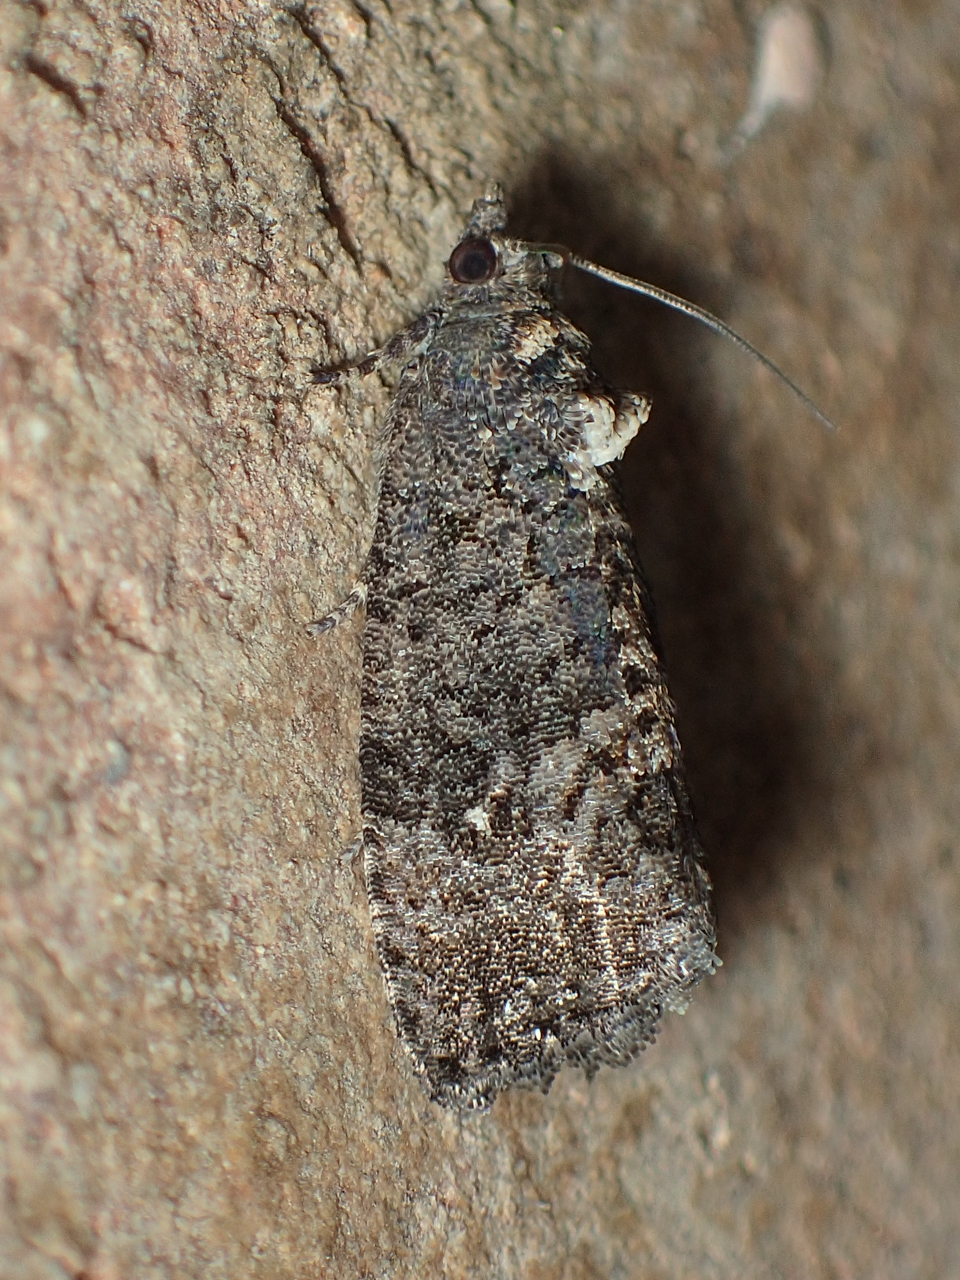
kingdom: Animalia
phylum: Arthropoda
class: Insecta
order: Lepidoptera
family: Tortricidae
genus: Gymnandrosoma
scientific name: Gymnandrosoma punctidiscanum
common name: Dotted ecdytolopha moth
